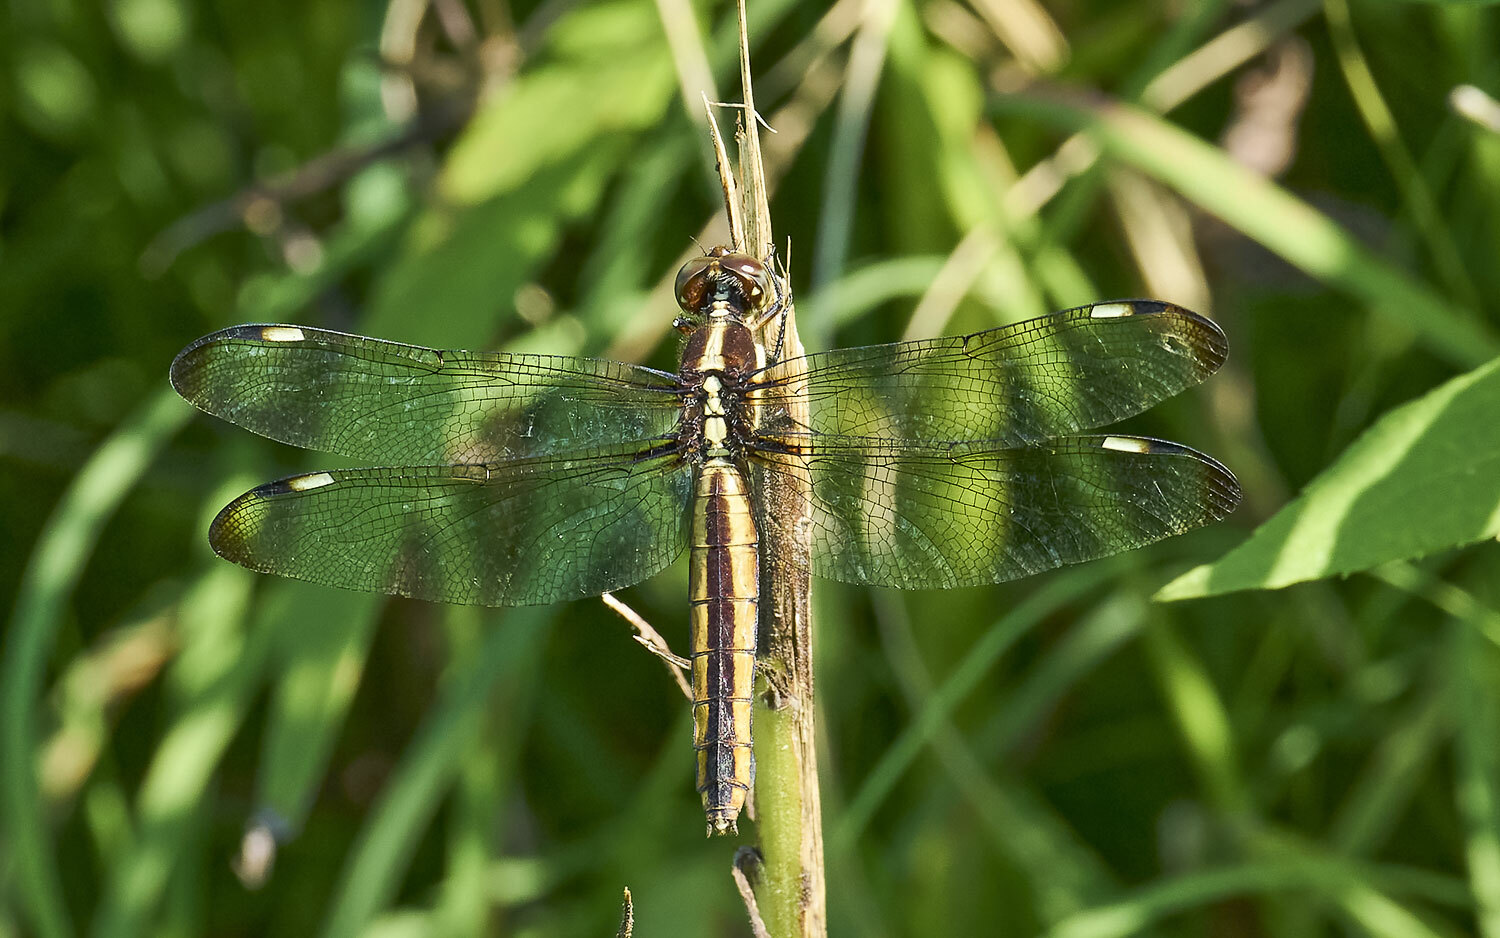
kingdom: Animalia
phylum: Arthropoda
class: Insecta
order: Odonata
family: Libellulidae
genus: Libellula
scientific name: Libellula cyanea
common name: Spangled skimmer
